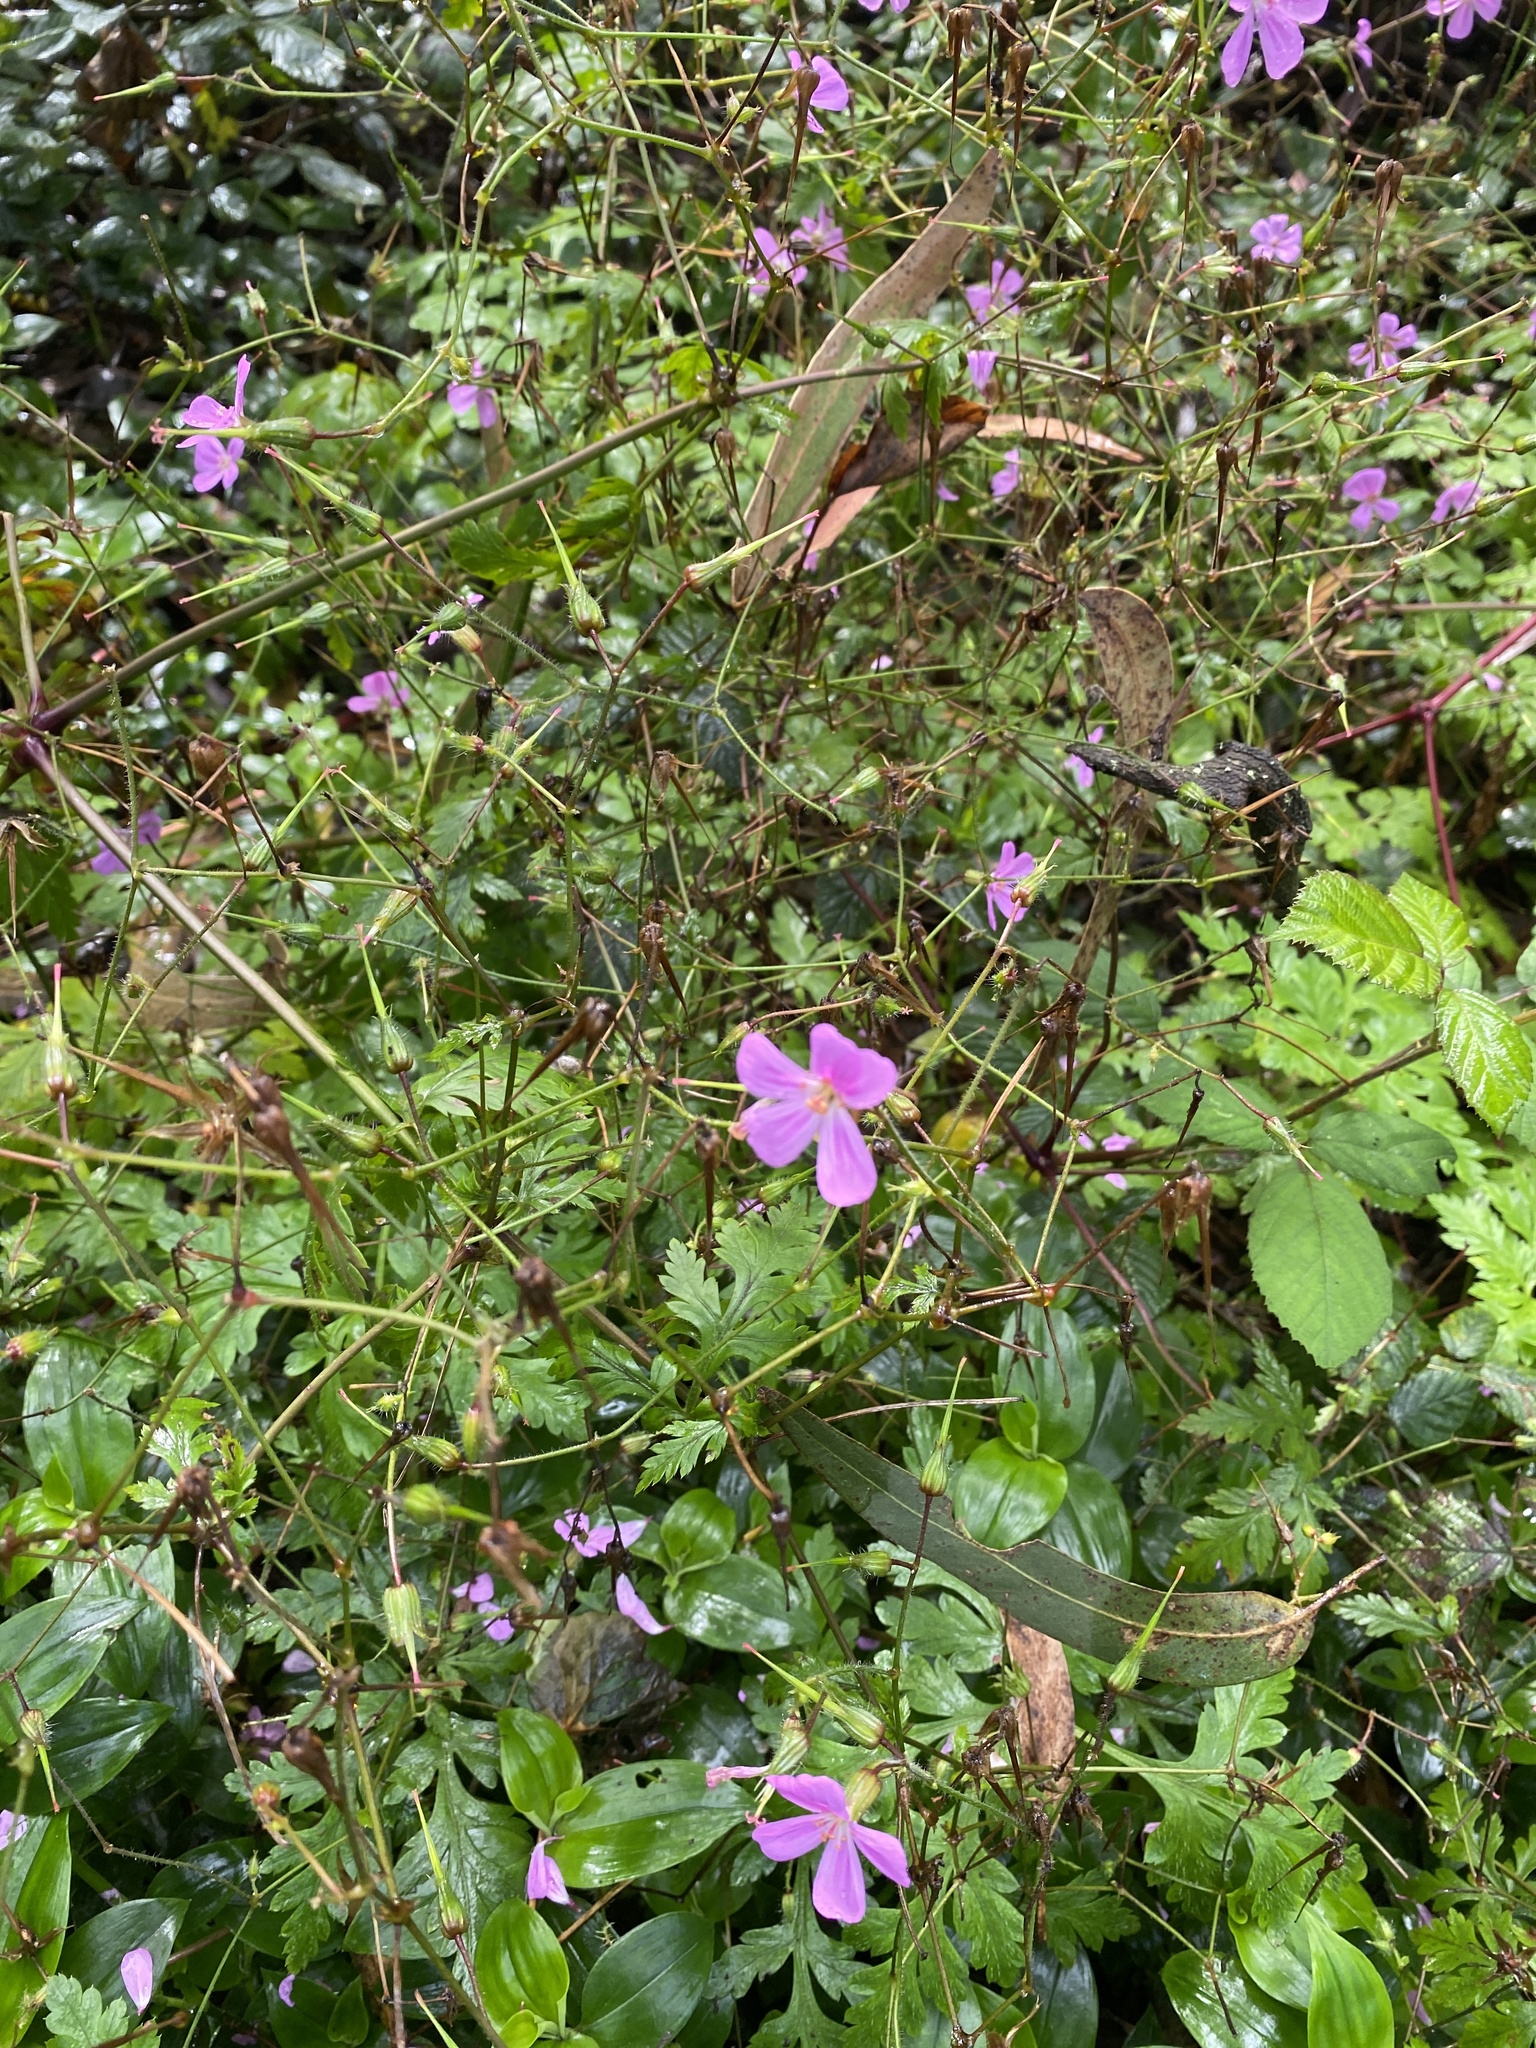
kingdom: Plantae
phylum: Tracheophyta
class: Magnoliopsida
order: Geraniales
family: Geraniaceae
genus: Geranium
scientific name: Geranium robertianum
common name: Herb-robert
